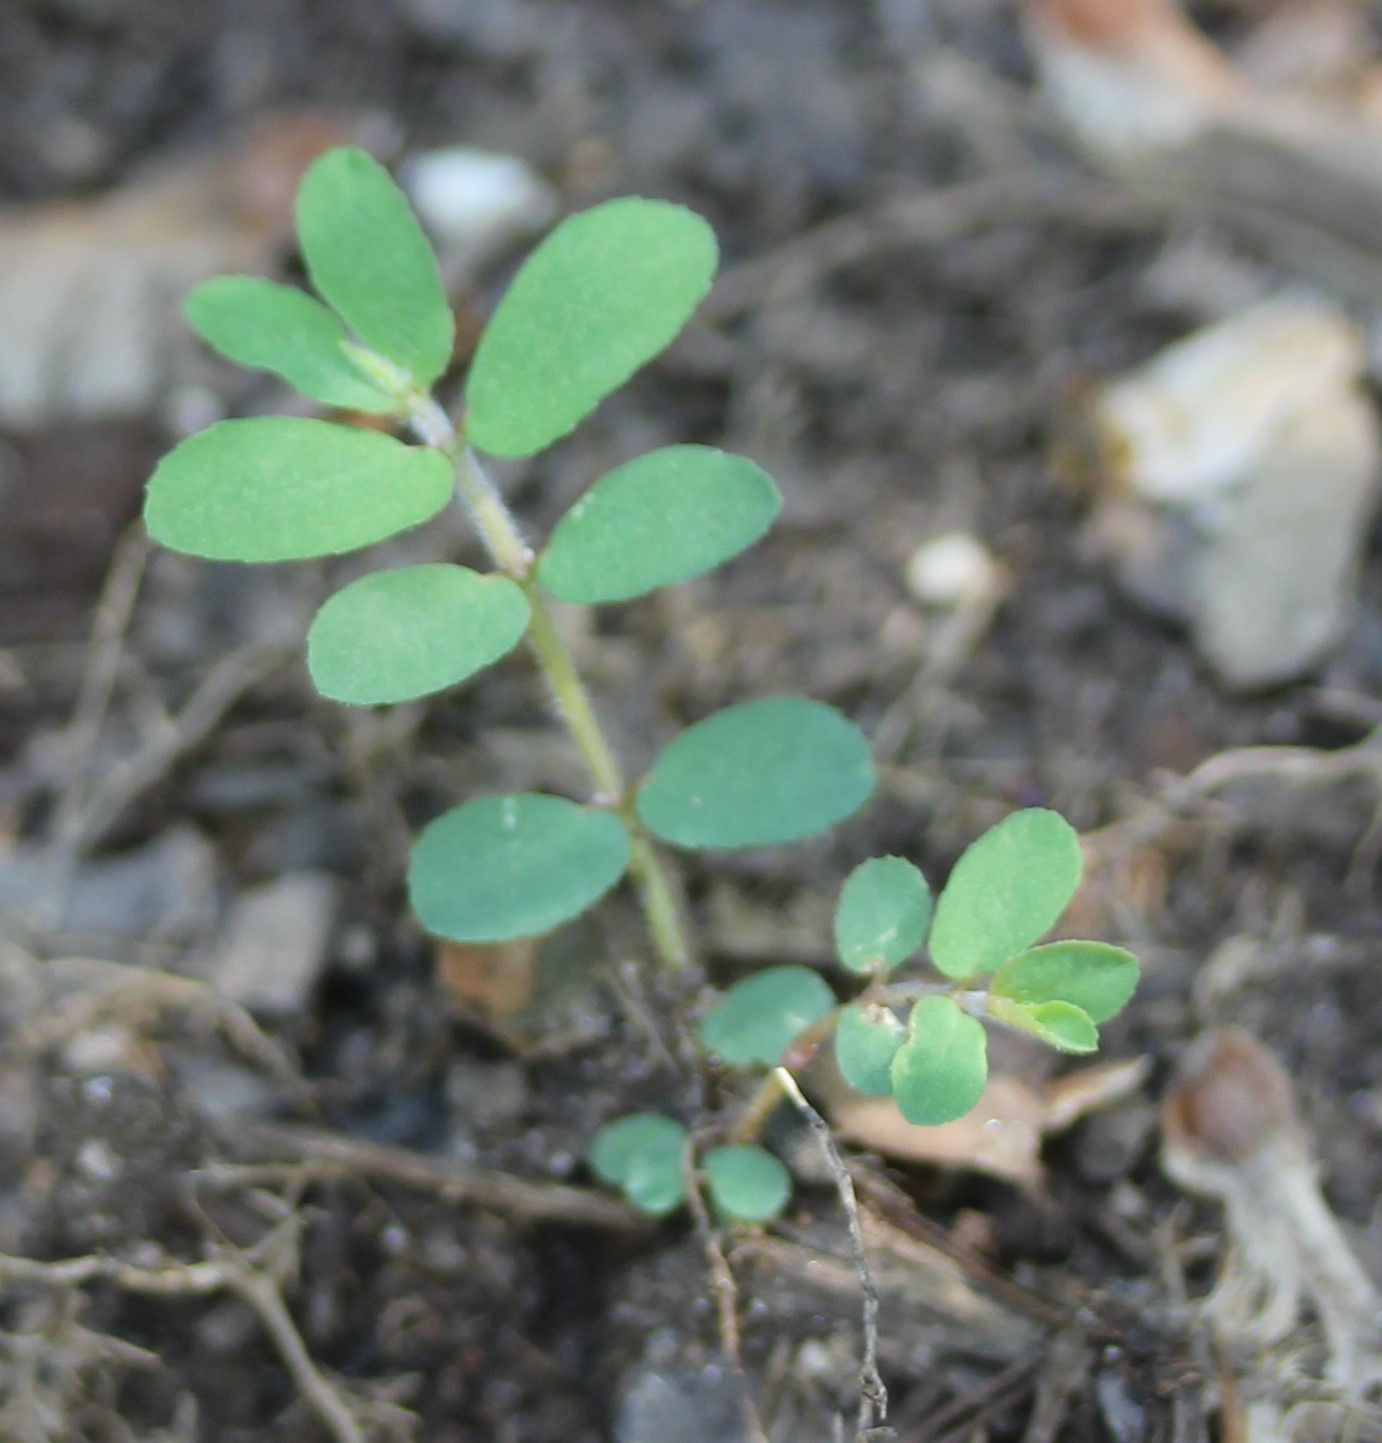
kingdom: Plantae
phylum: Tracheophyta
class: Magnoliopsida
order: Malpighiales
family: Euphorbiaceae
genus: Euphorbia
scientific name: Euphorbia maculata
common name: Spotted spurge
